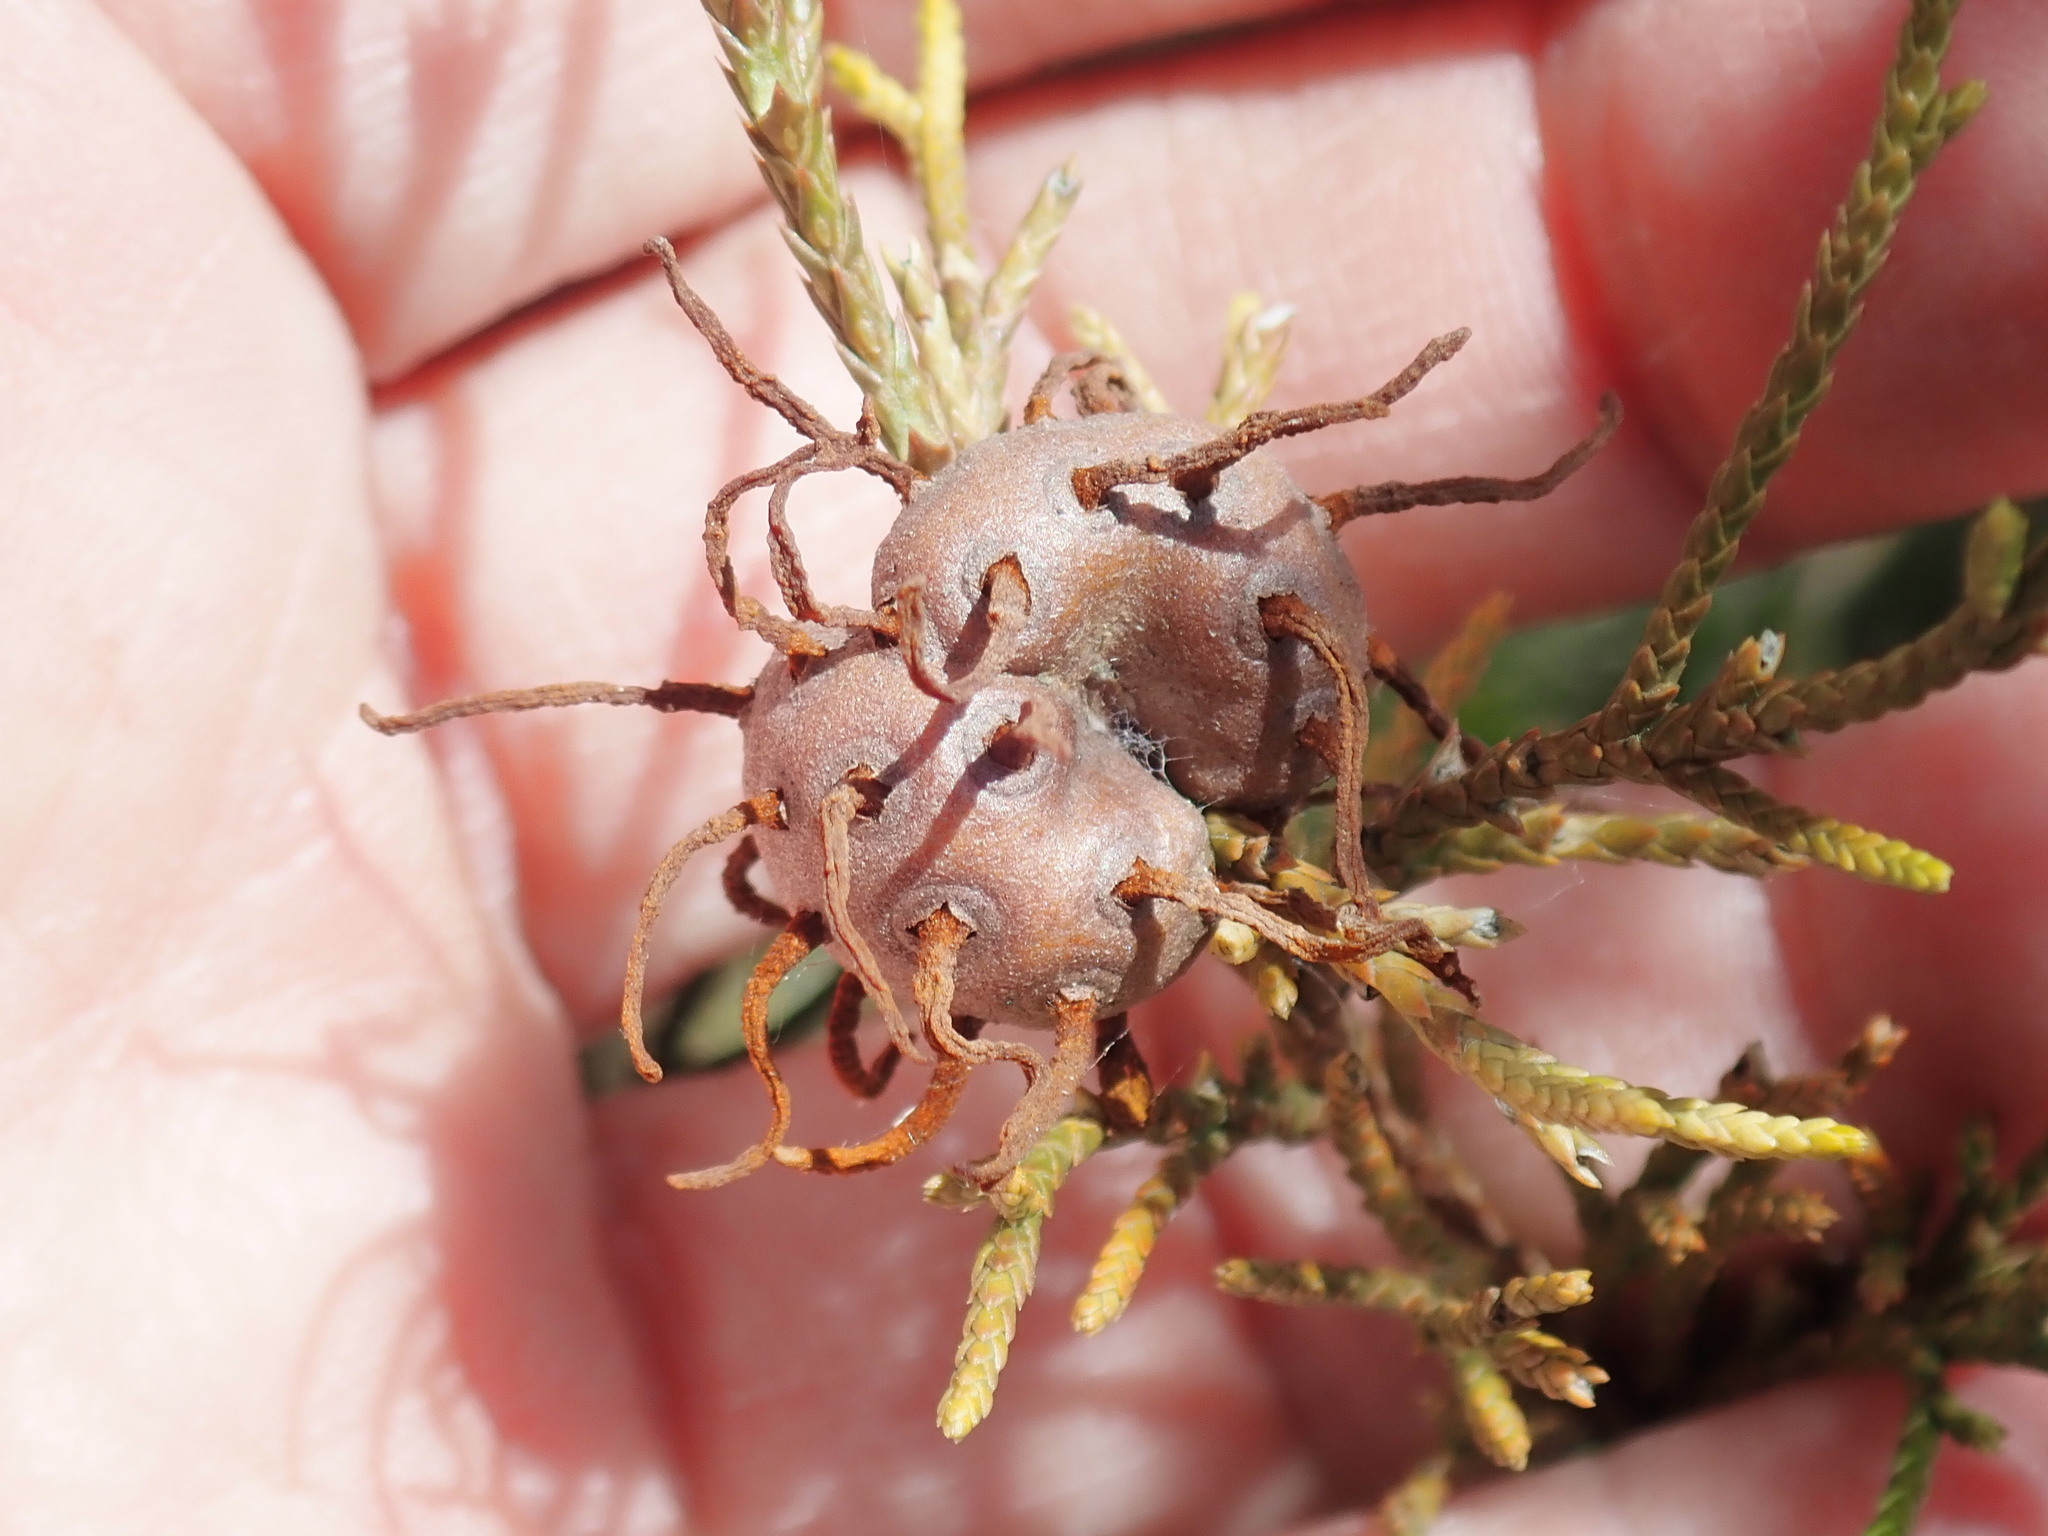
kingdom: Fungi
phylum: Basidiomycota
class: Pucciniomycetes
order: Pucciniales
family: Gymnosporangiaceae
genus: Gymnosporangium
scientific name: Gymnosporangium juniperi-virginianae
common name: Juniper-apple rust
